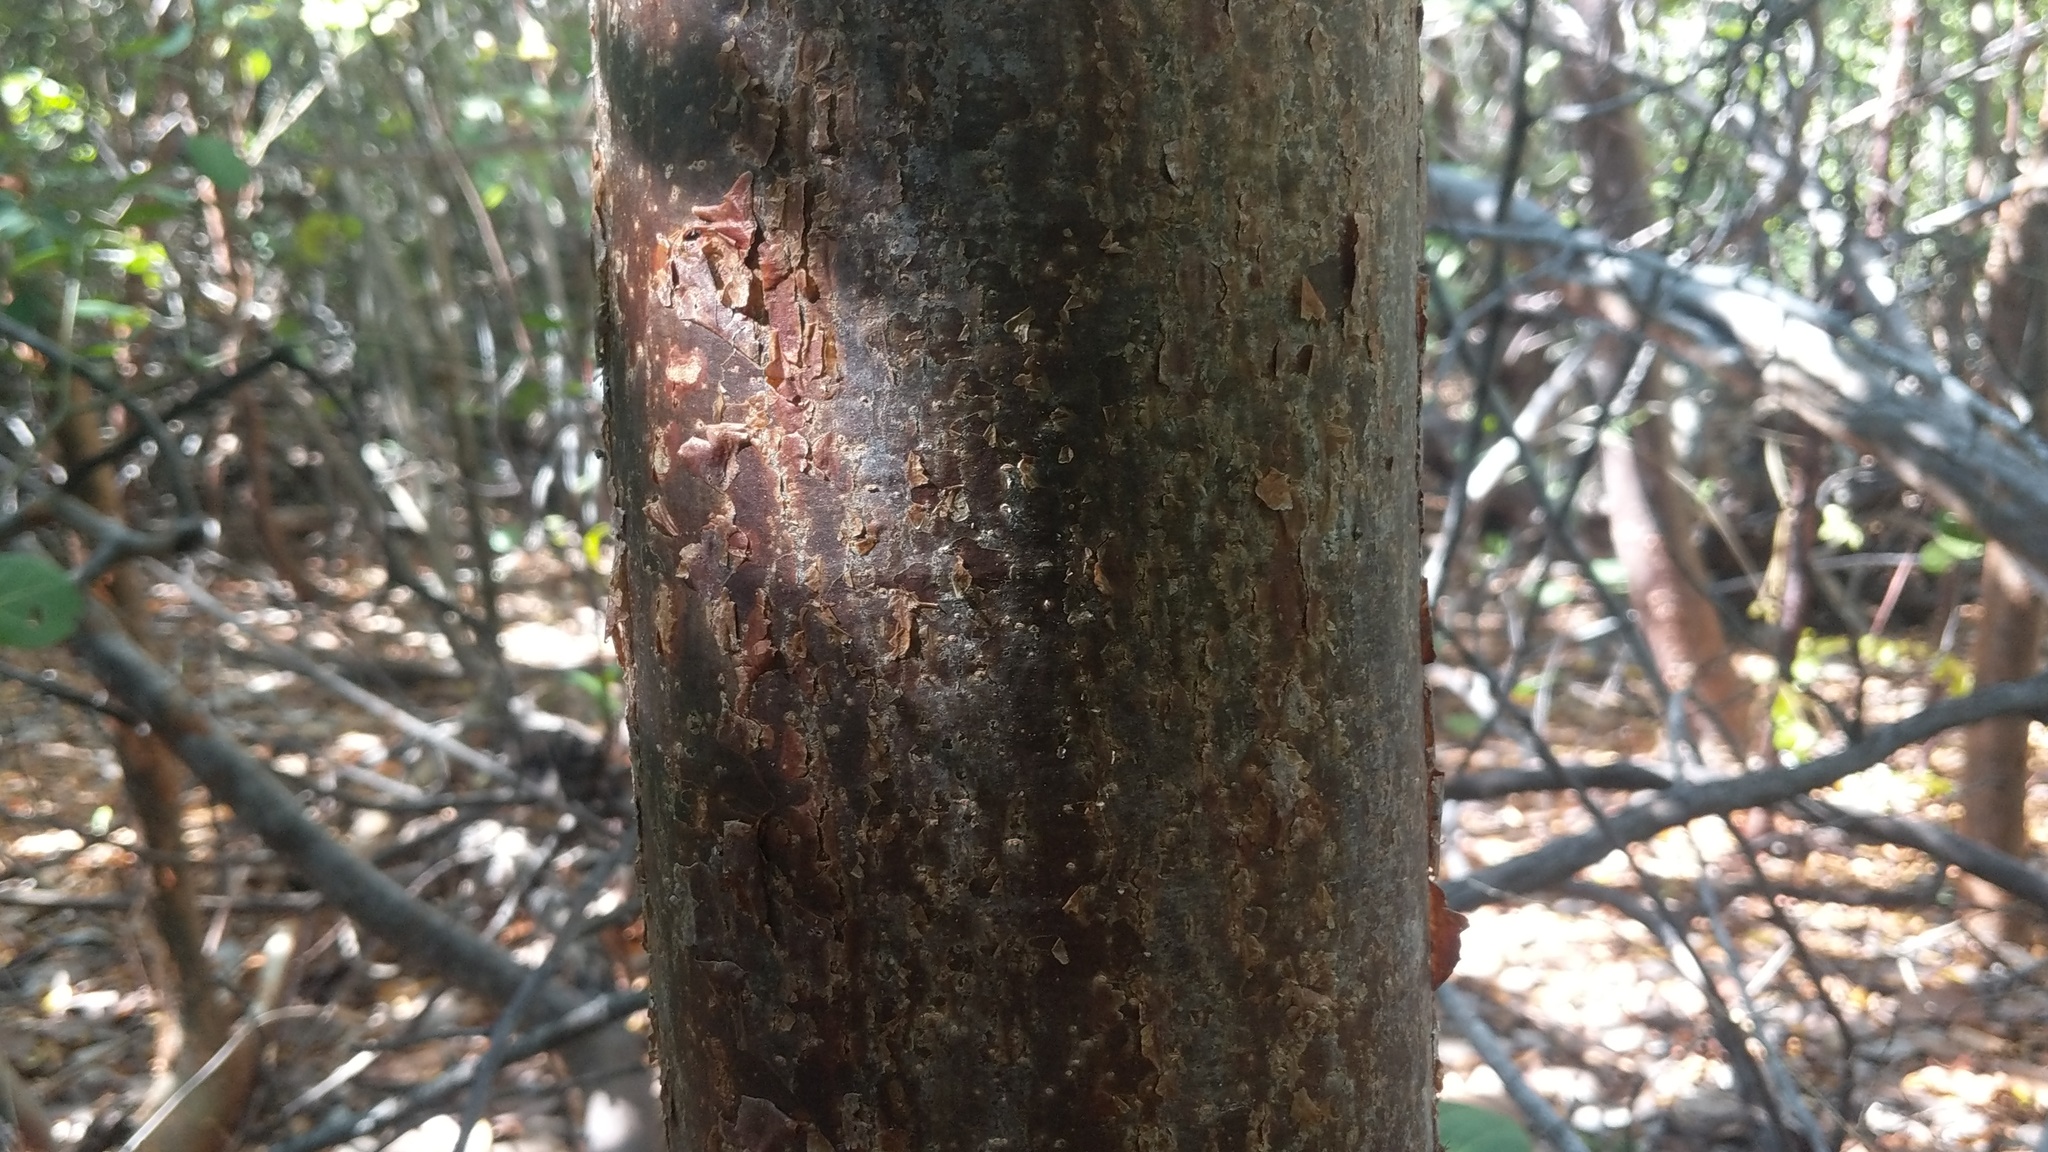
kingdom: Plantae
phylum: Tracheophyta
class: Magnoliopsida
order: Sapindales
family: Burseraceae
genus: Bursera
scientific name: Bursera simaruba
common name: Turpentine tree
